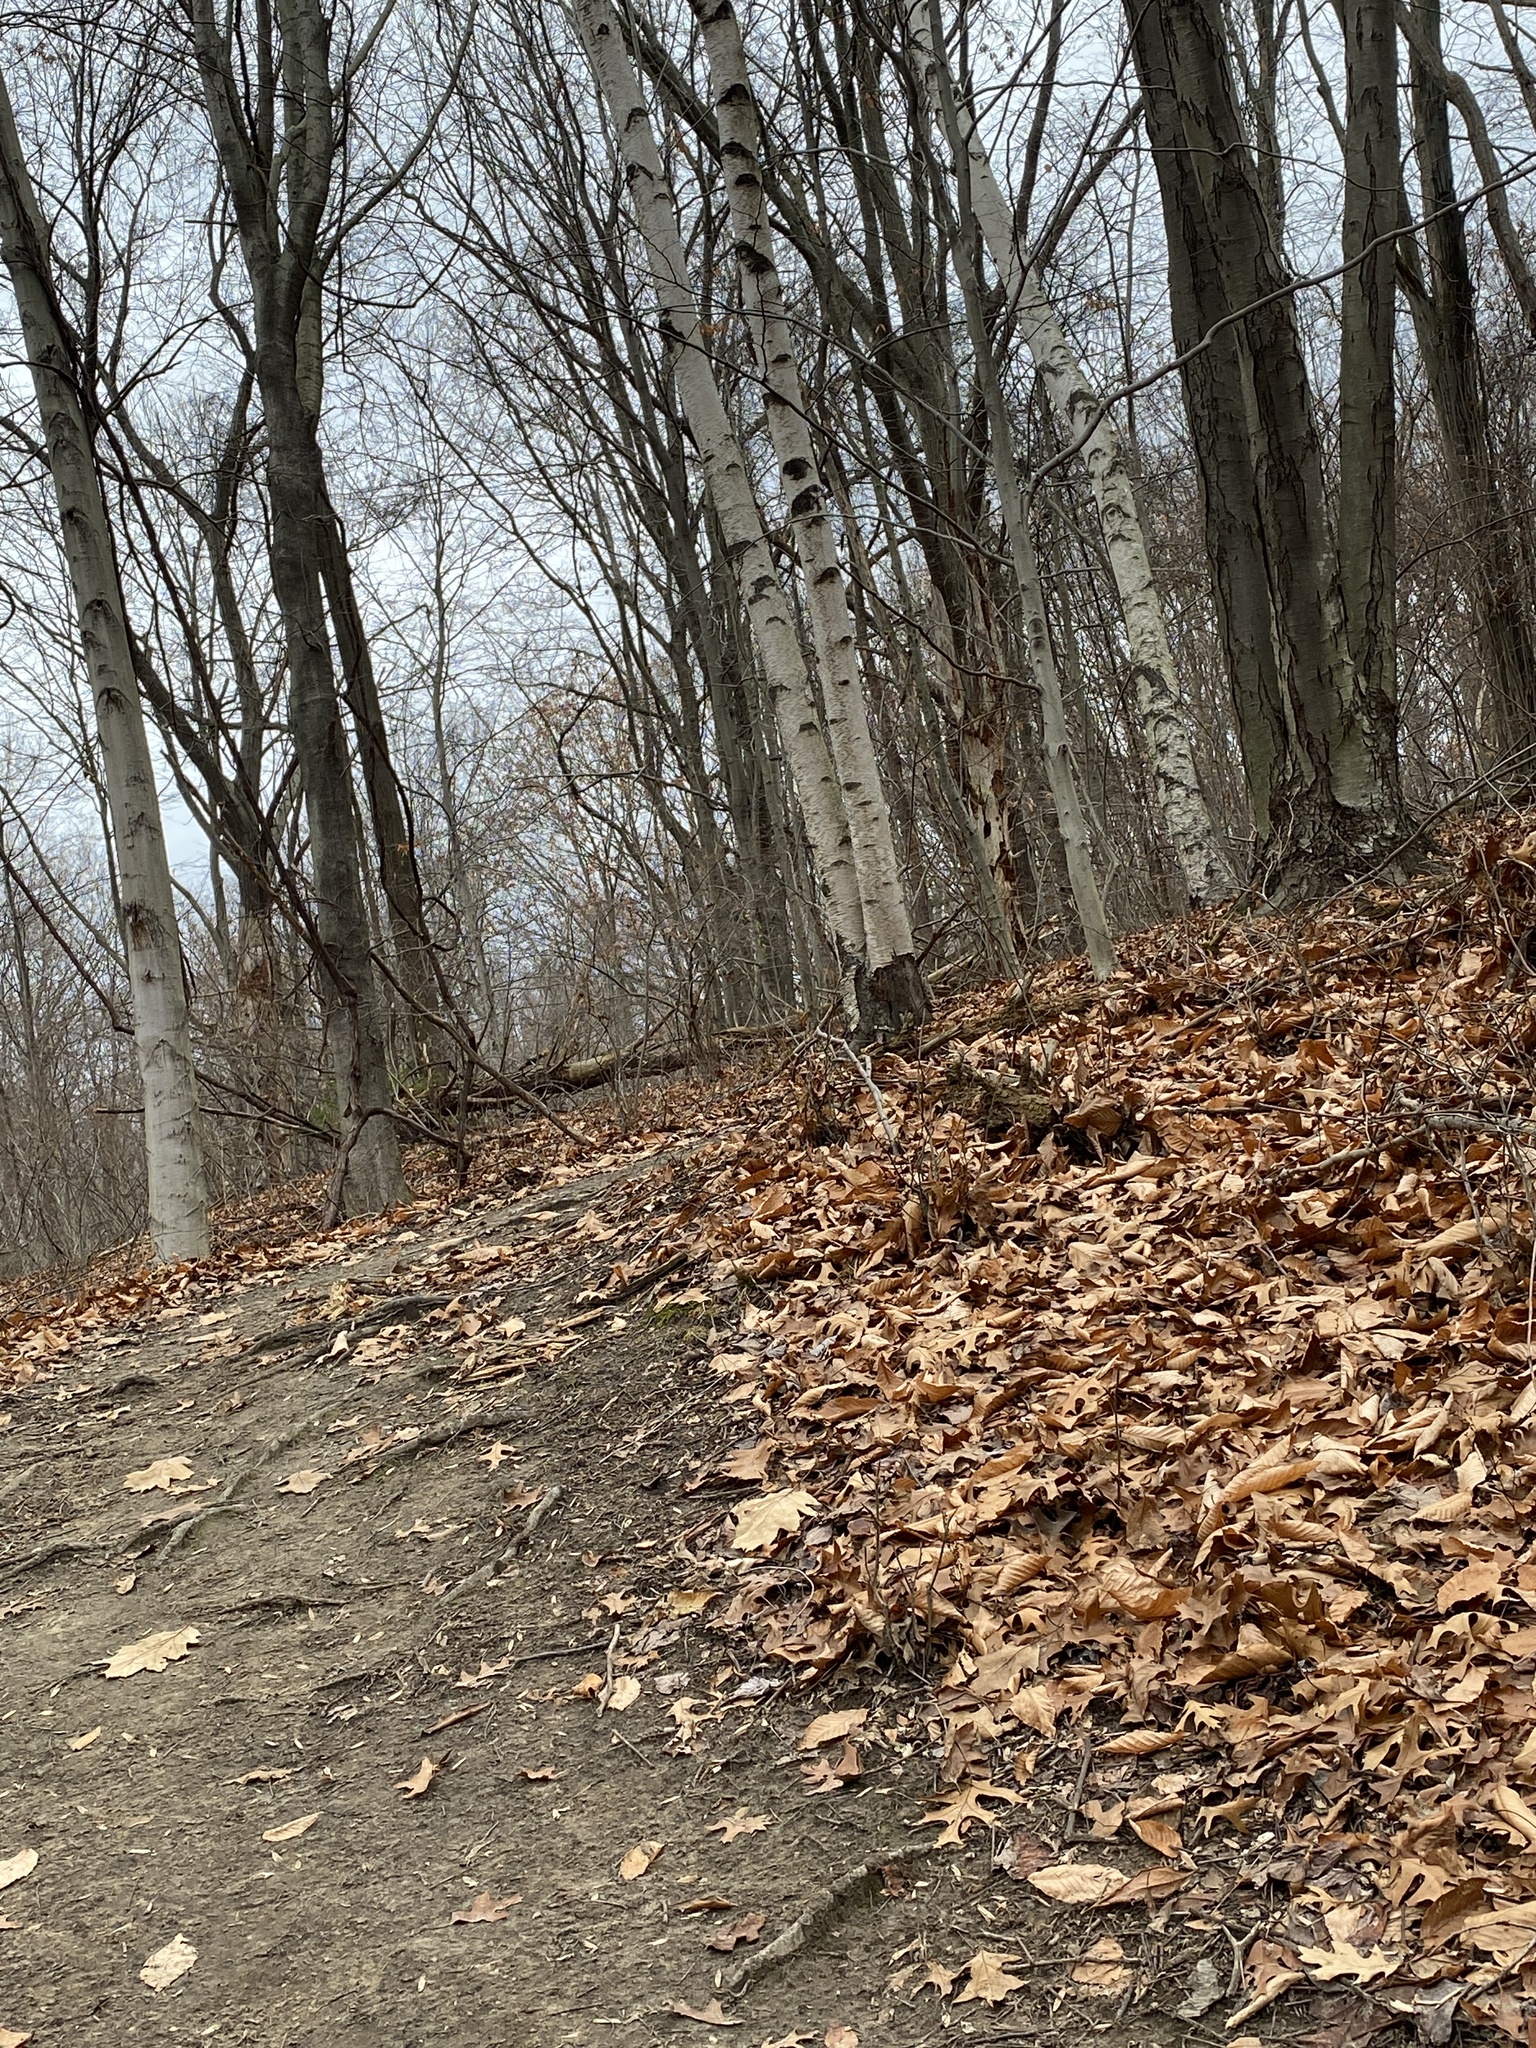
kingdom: Plantae
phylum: Tracheophyta
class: Polypodiopsida
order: Polypodiales
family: Dryopteridaceae
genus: Polystichum
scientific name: Polystichum acrostichoides
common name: Christmas fern
